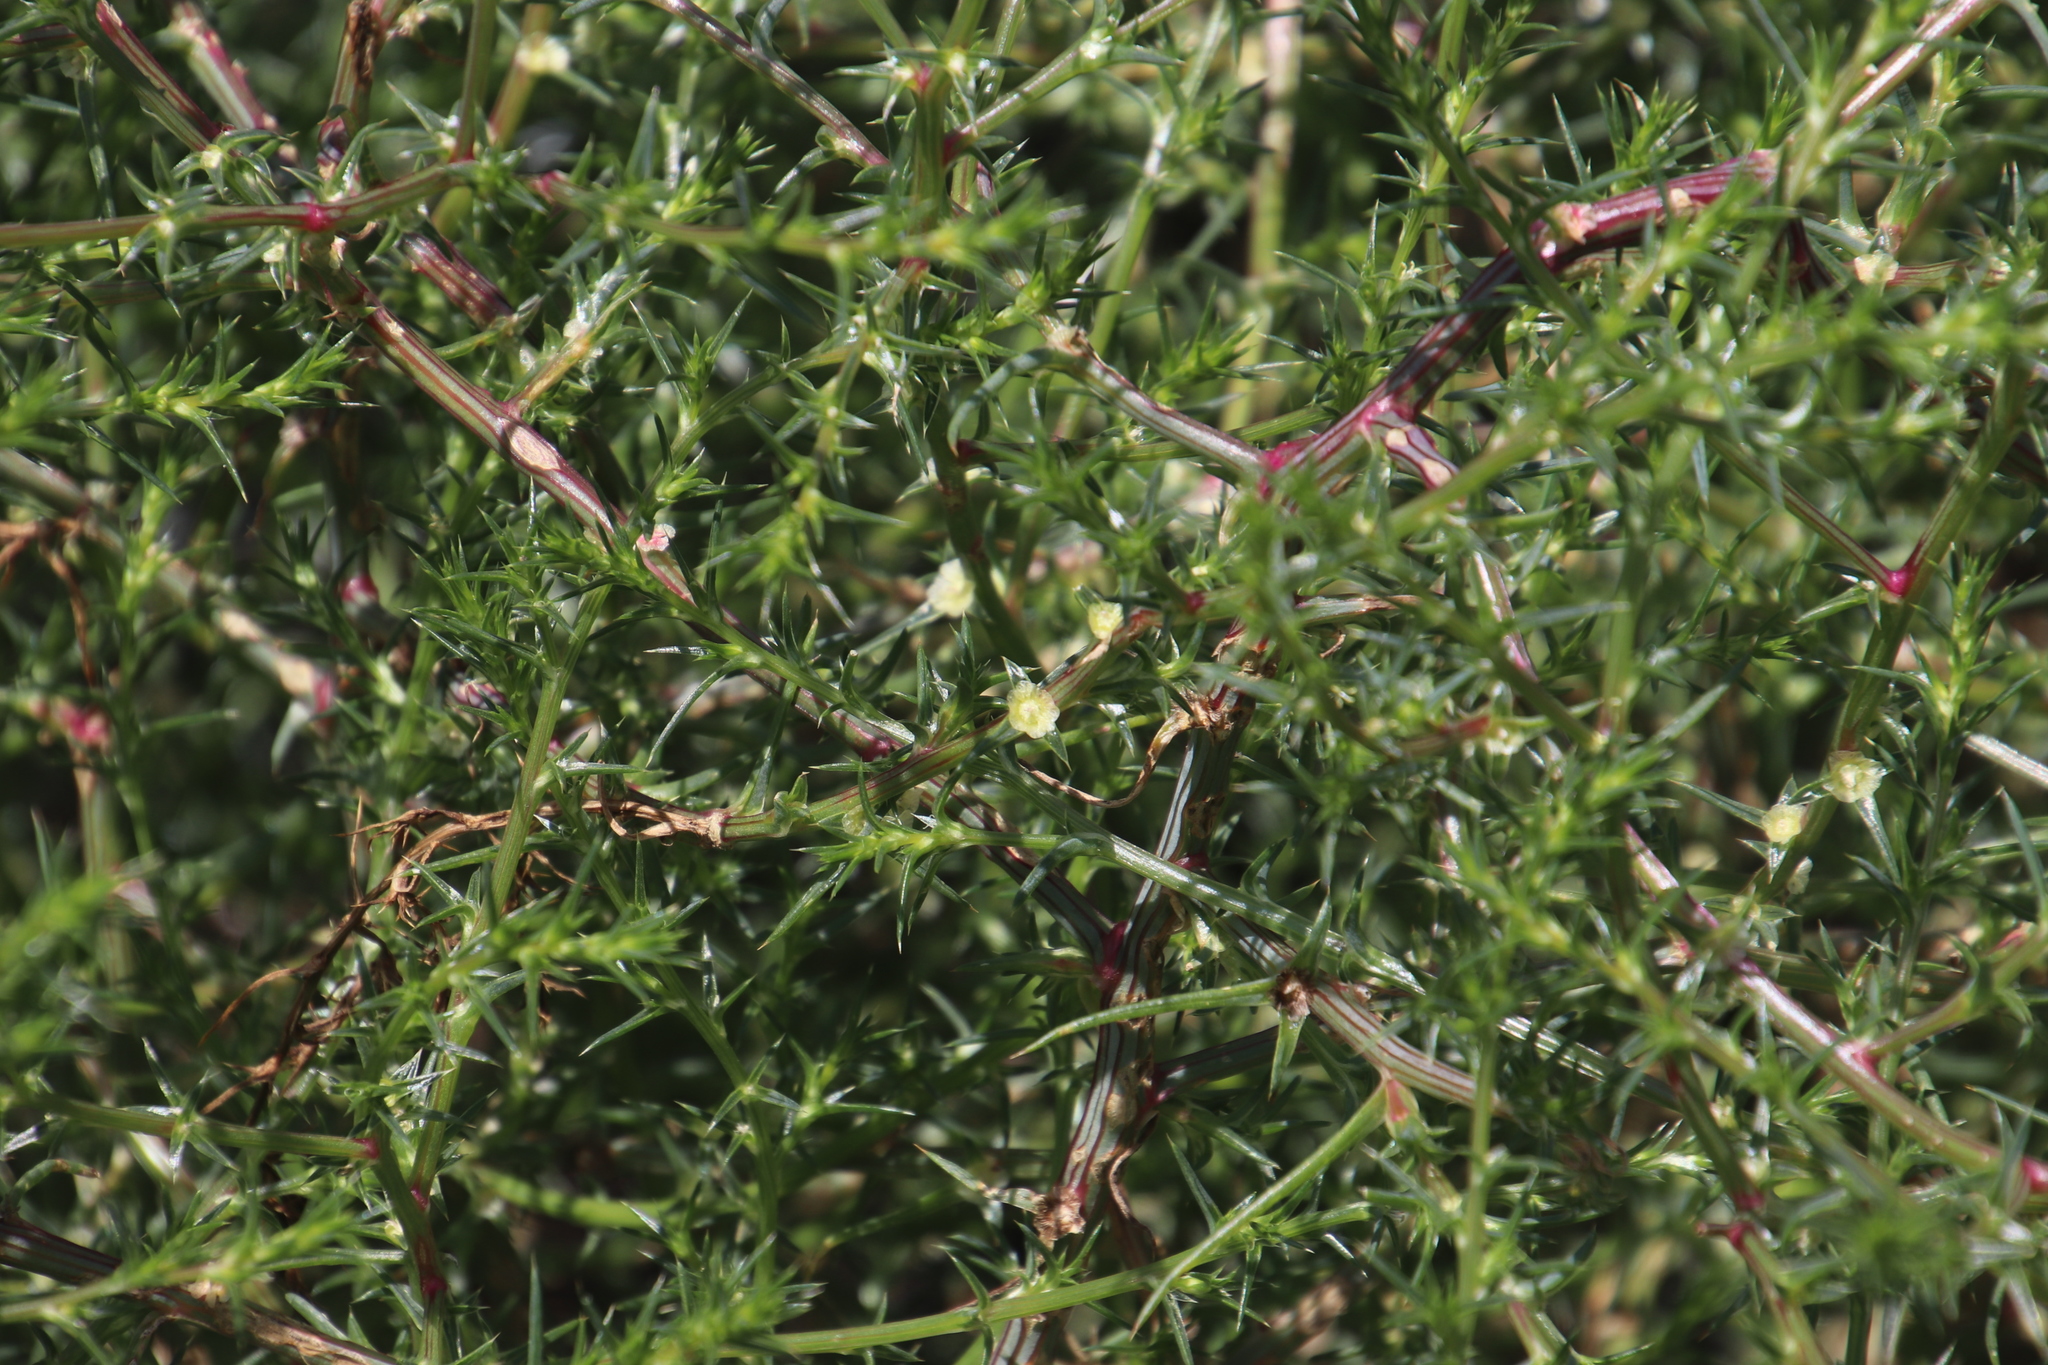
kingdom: Plantae
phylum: Tracheophyta
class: Magnoliopsida
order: Caryophyllales
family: Amaranthaceae
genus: Salsola
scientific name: Salsola kali
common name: Saltwort
